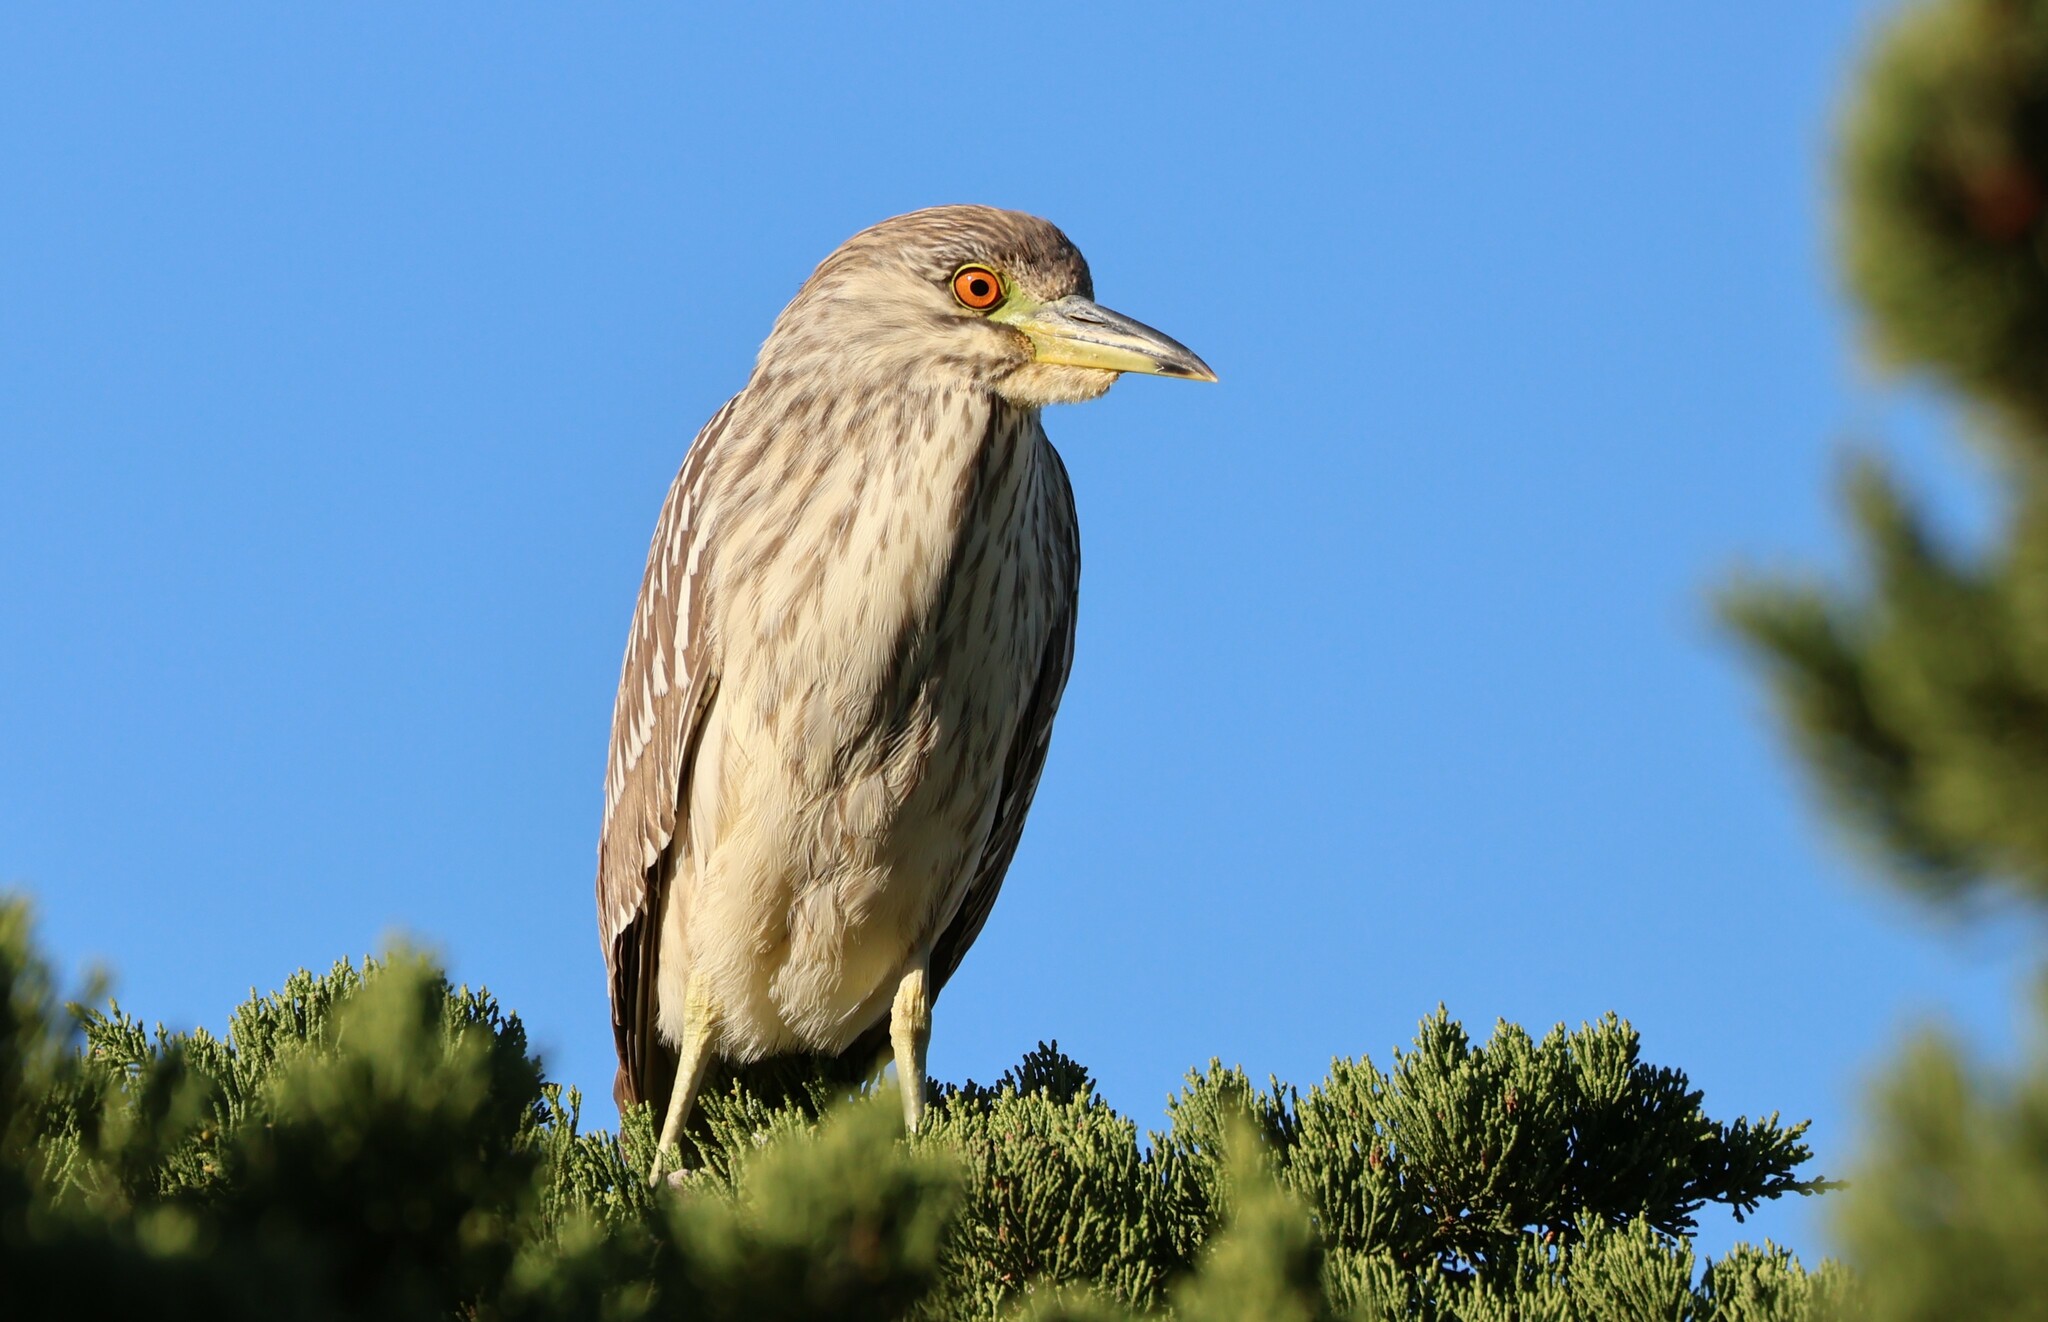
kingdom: Animalia
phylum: Chordata
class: Aves
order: Pelecaniformes
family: Ardeidae
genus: Nycticorax
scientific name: Nycticorax nycticorax
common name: Black-crowned night heron
